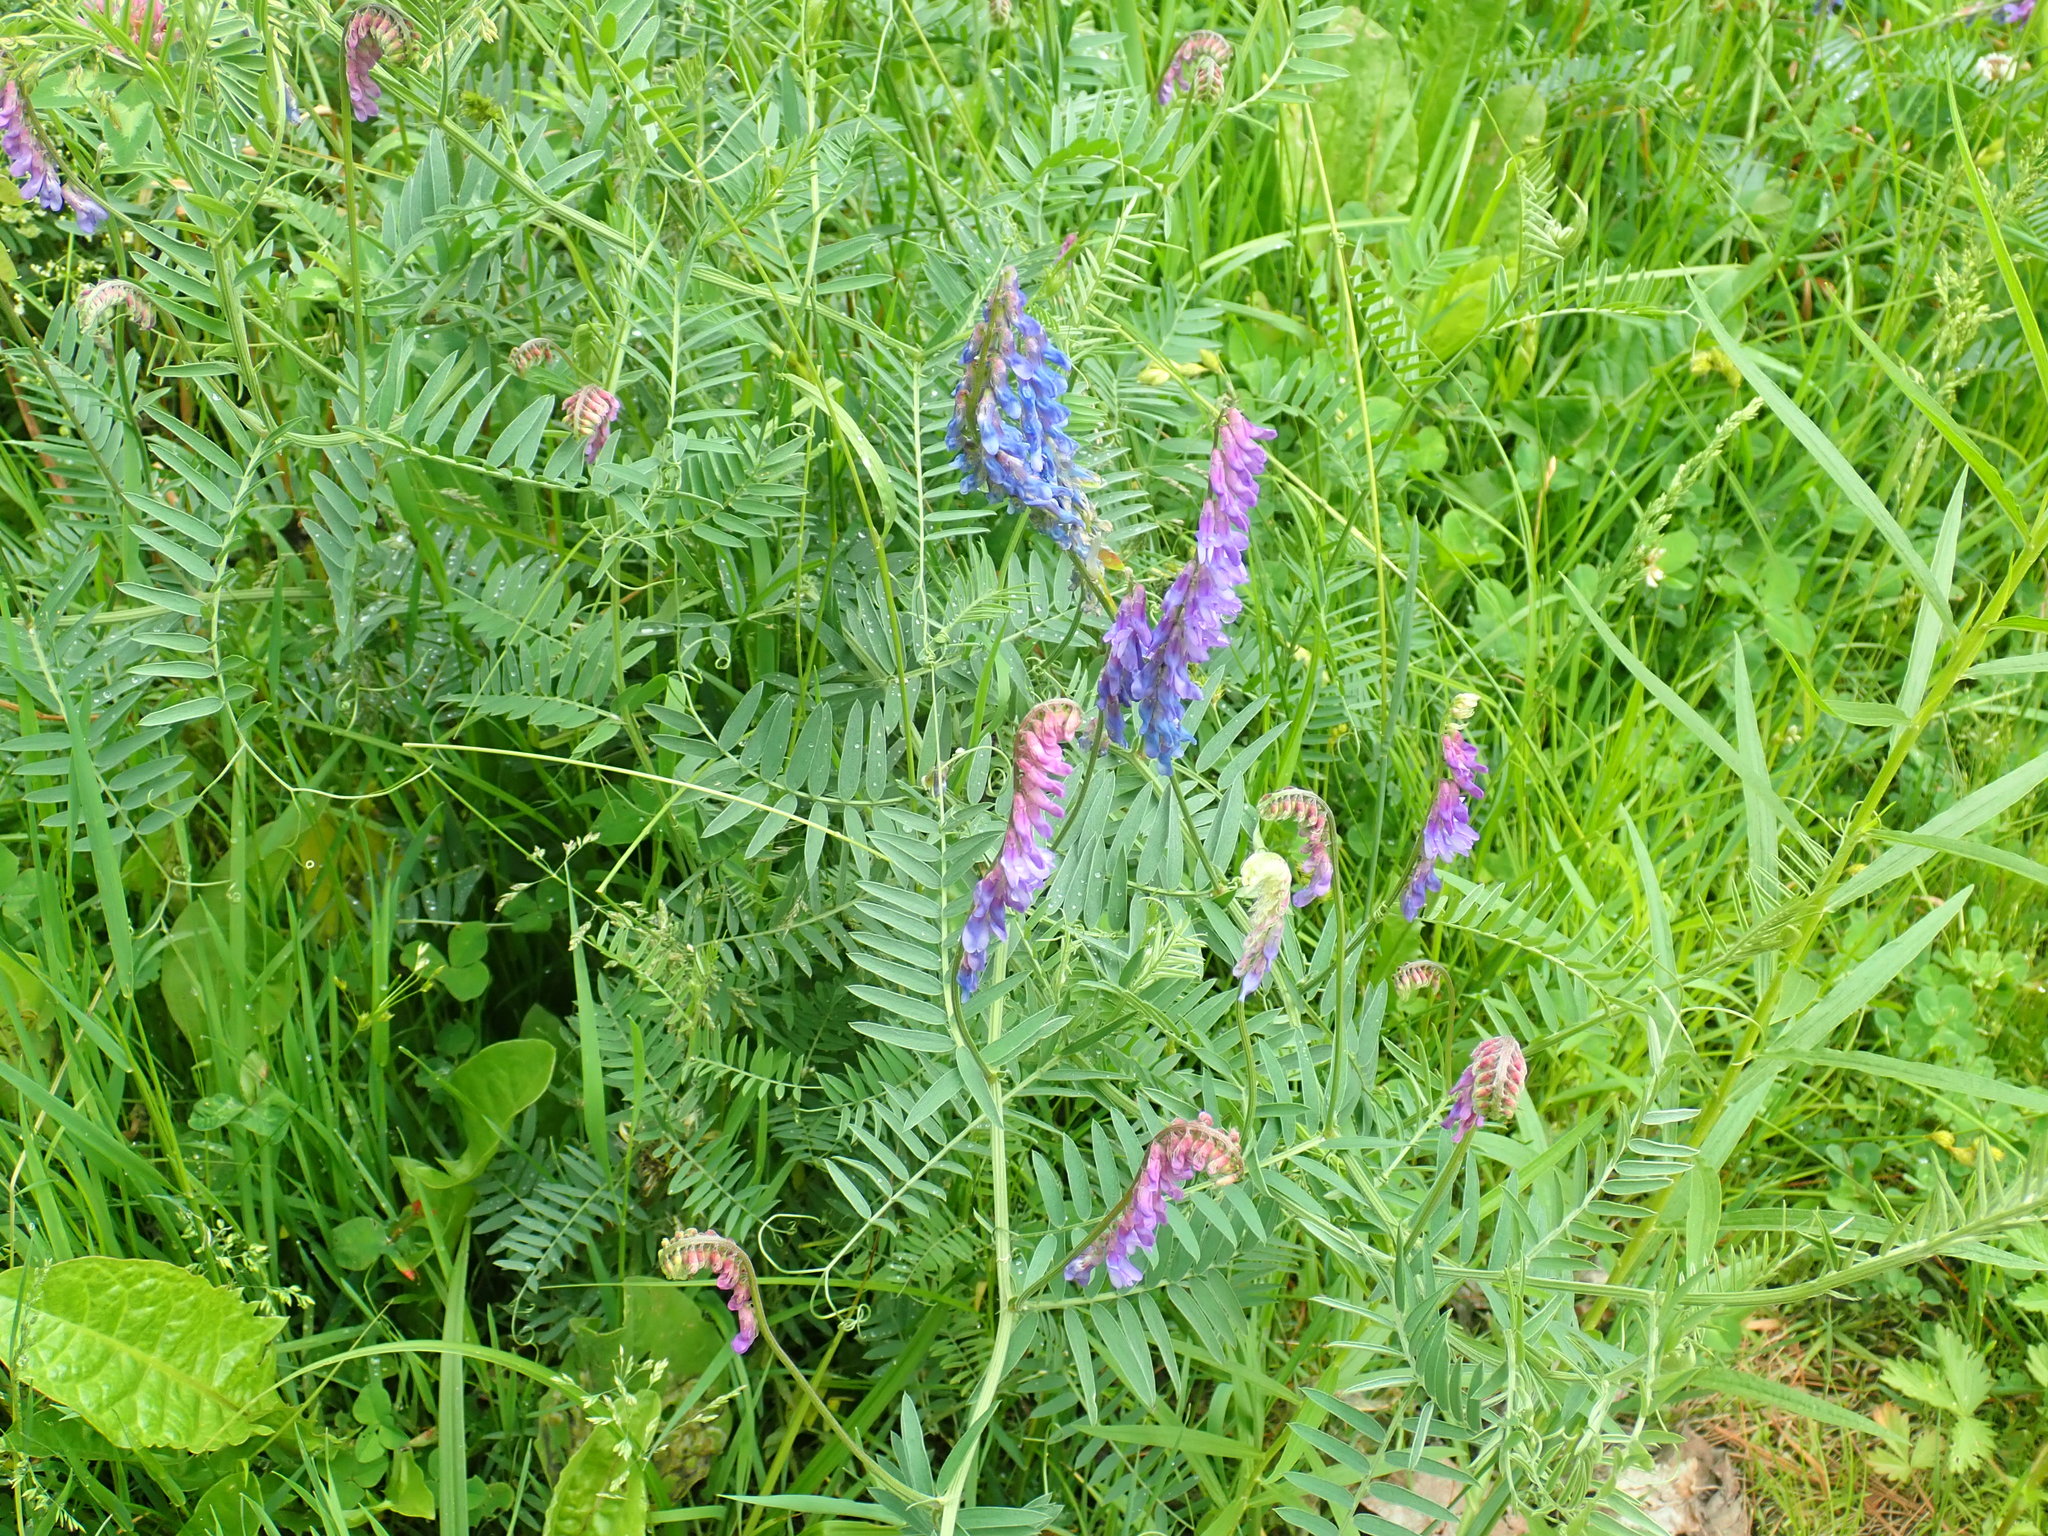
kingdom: Plantae
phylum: Tracheophyta
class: Magnoliopsida
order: Fabales
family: Fabaceae
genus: Vicia
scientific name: Vicia cracca
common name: Bird vetch
